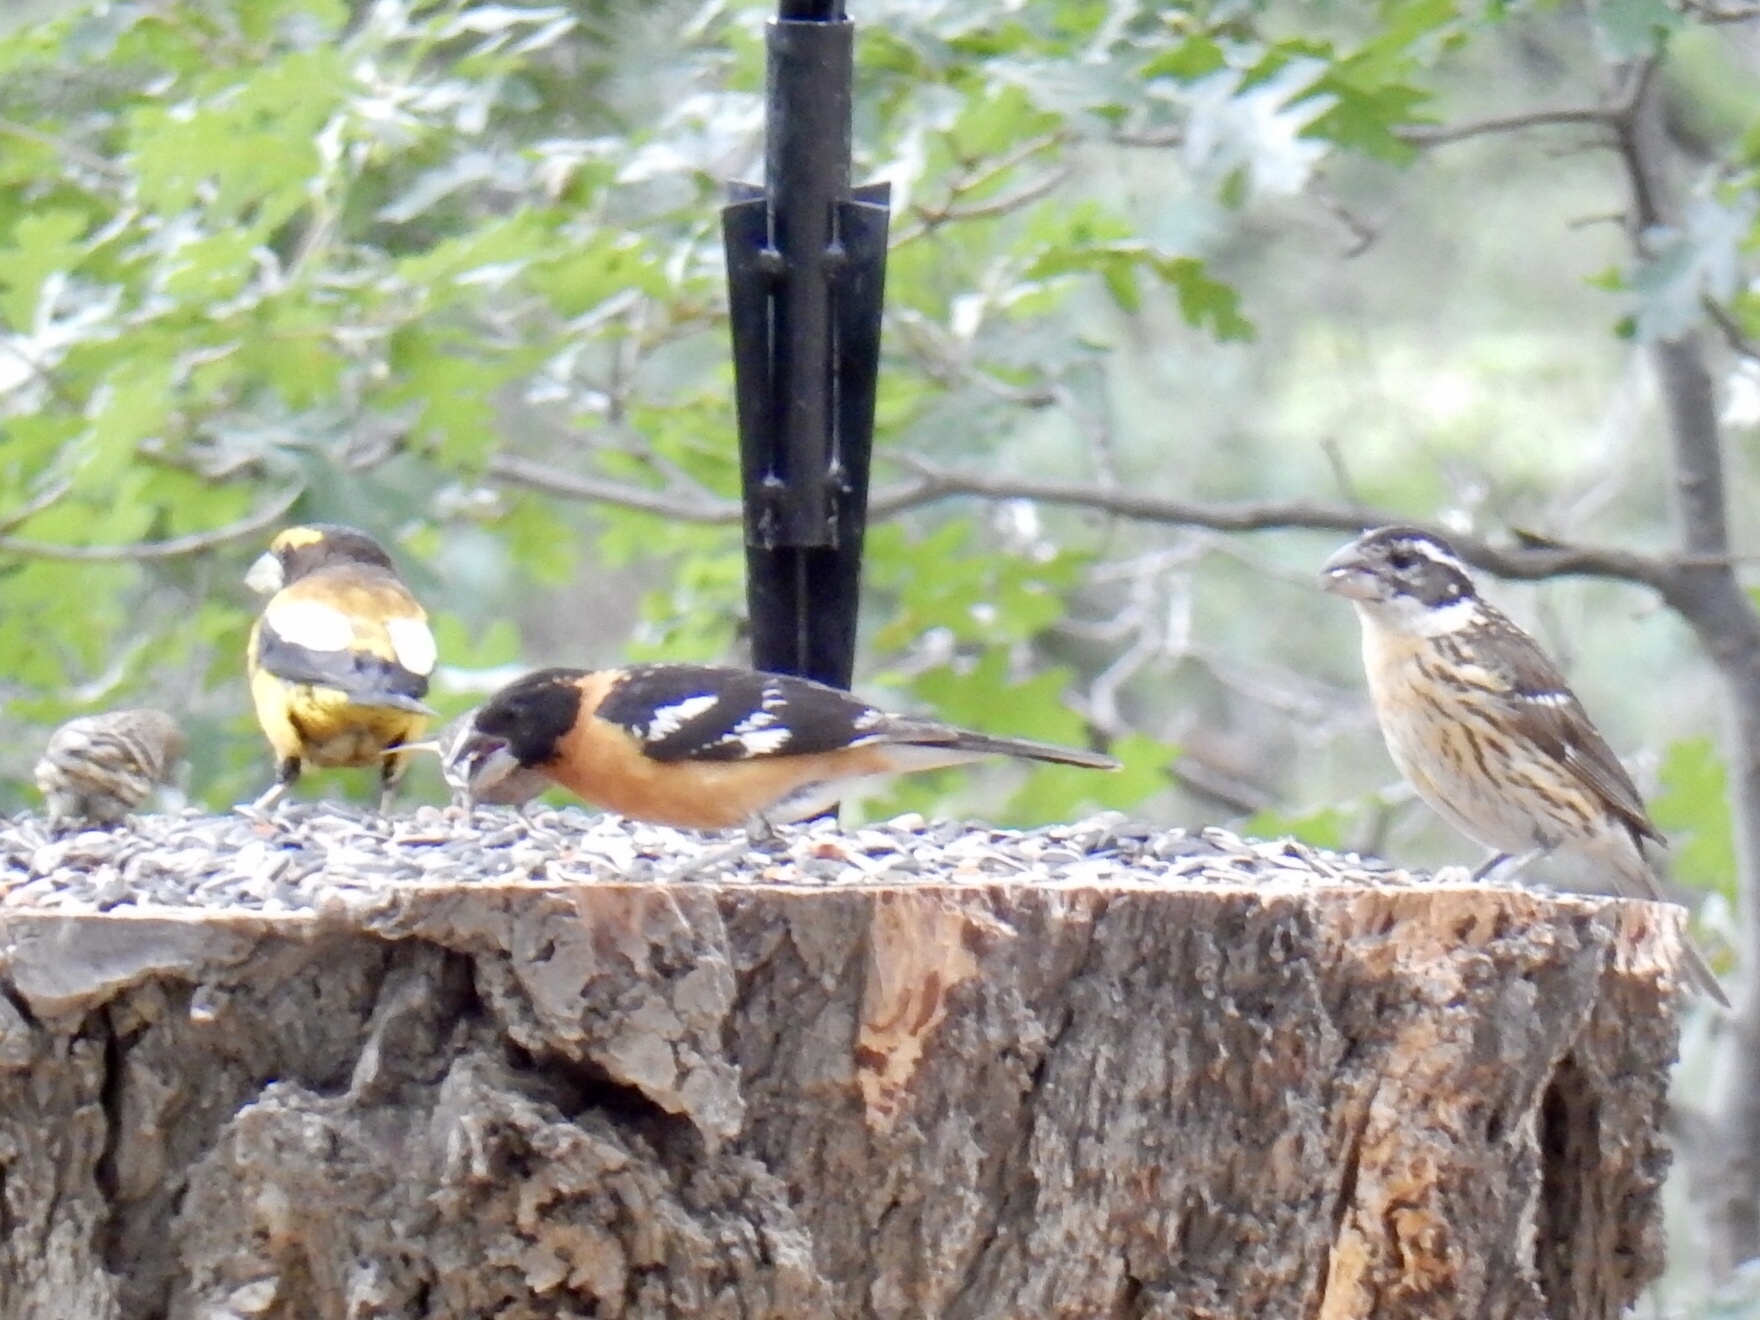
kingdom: Animalia
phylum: Chordata
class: Aves
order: Passeriformes
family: Cardinalidae
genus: Pheucticus
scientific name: Pheucticus melanocephalus
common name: Black-headed grosbeak
